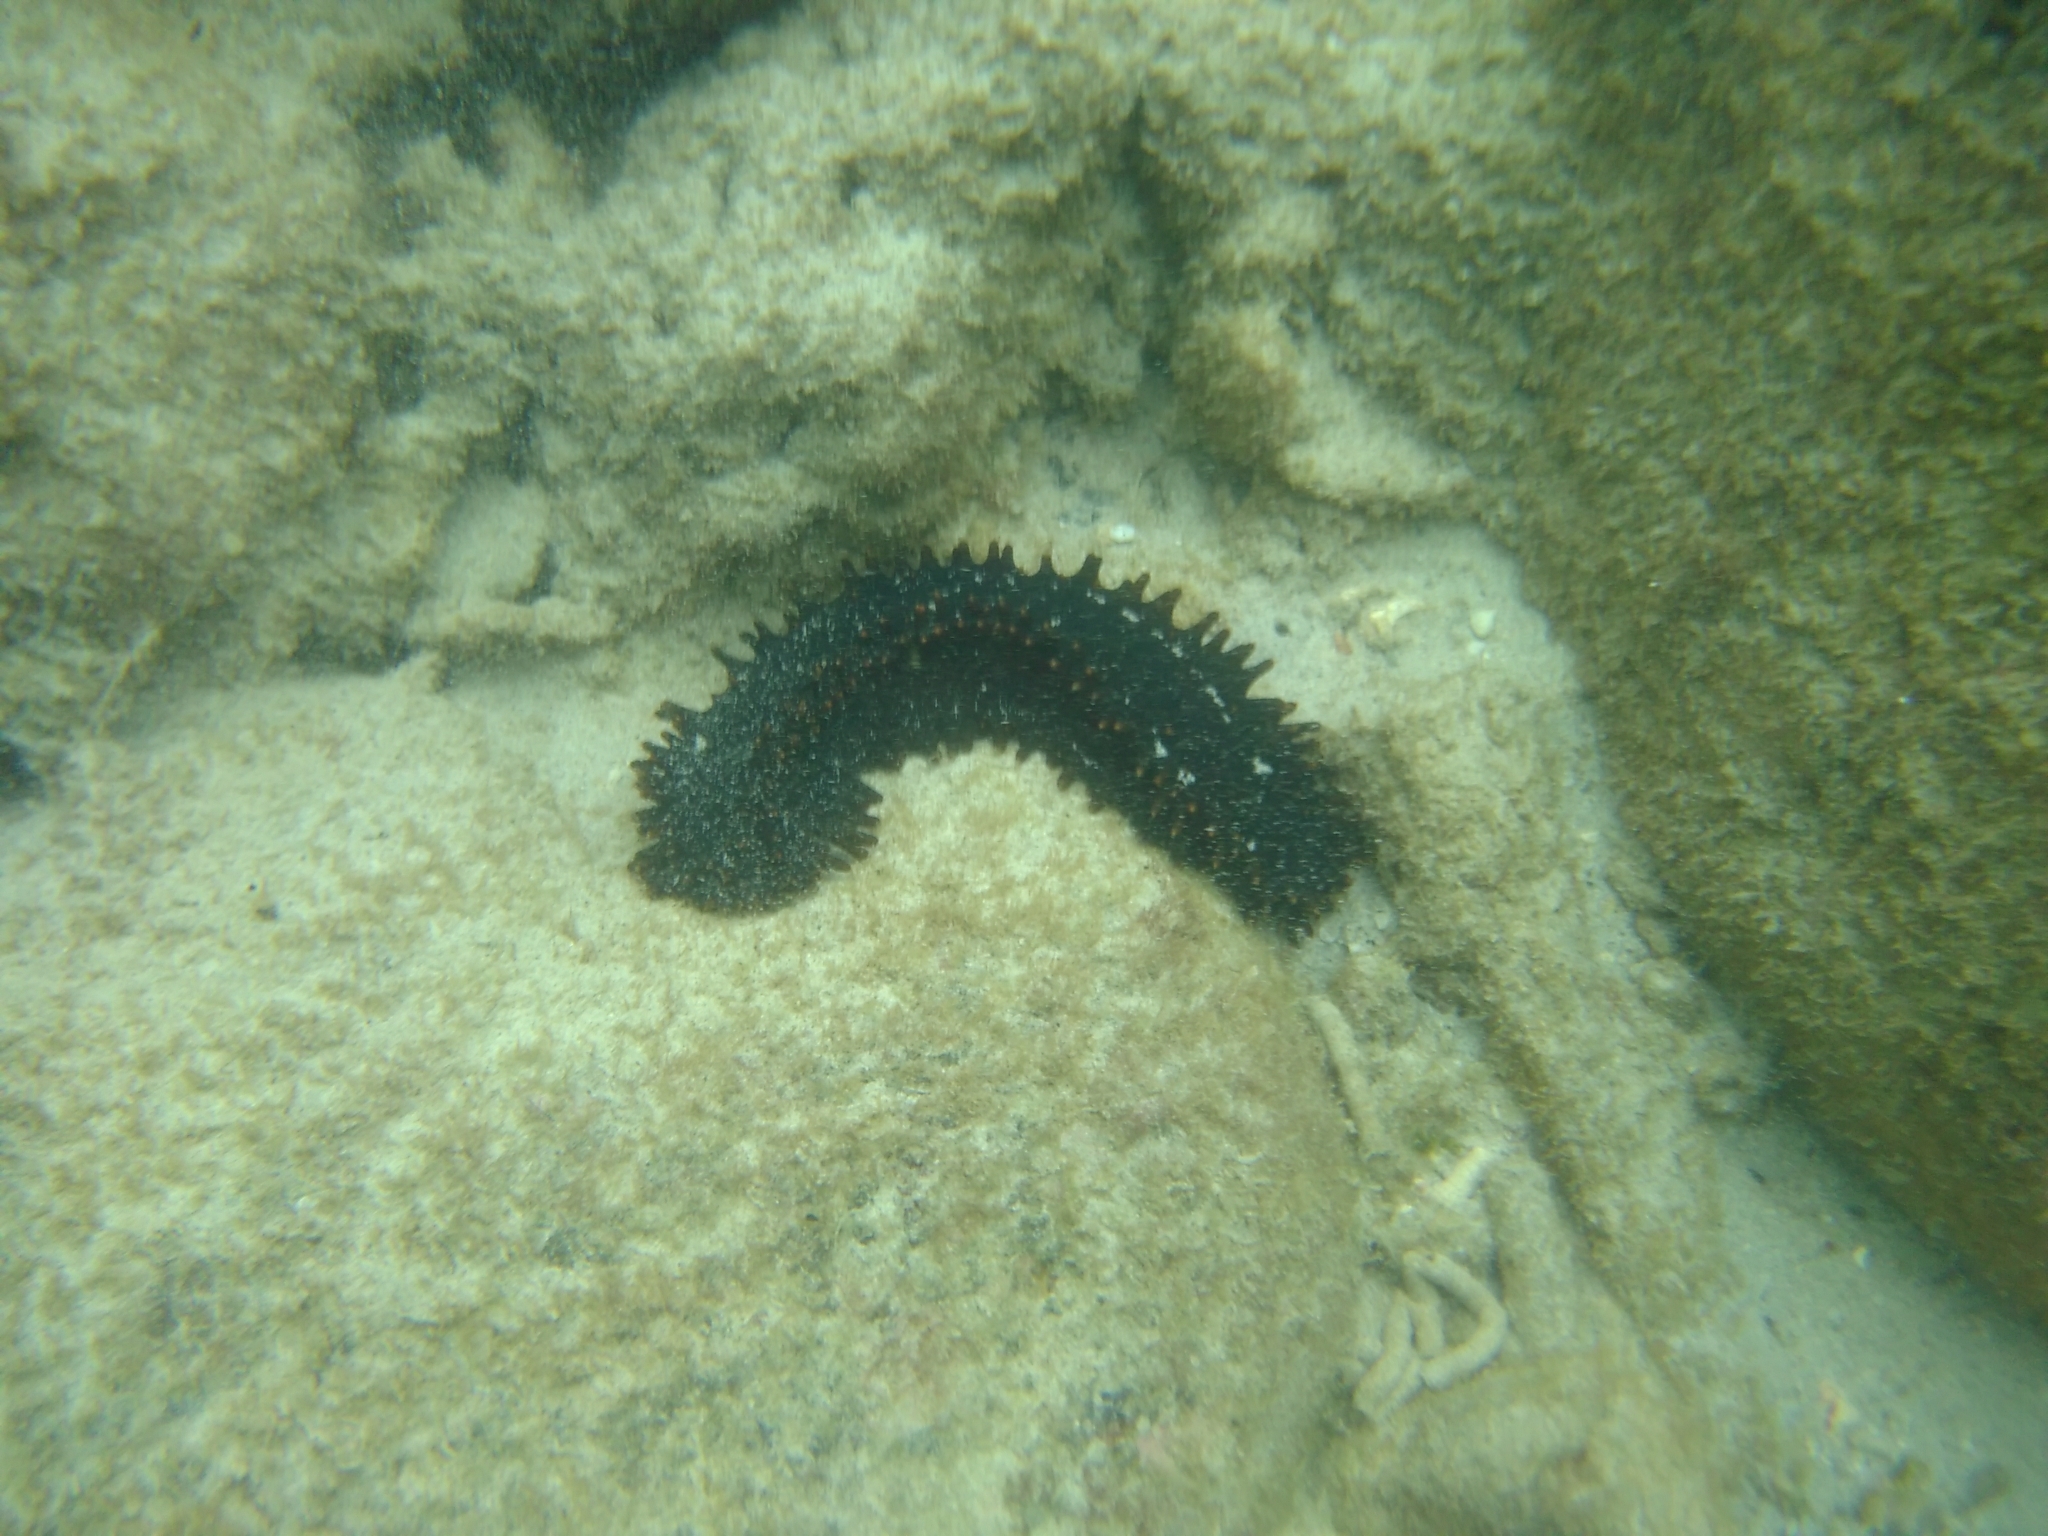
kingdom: Animalia
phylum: Echinodermata
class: Holothuroidea
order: Synallactida
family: Stichopodidae
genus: Stichopus
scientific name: Stichopus chloronotus
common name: Greenfish
